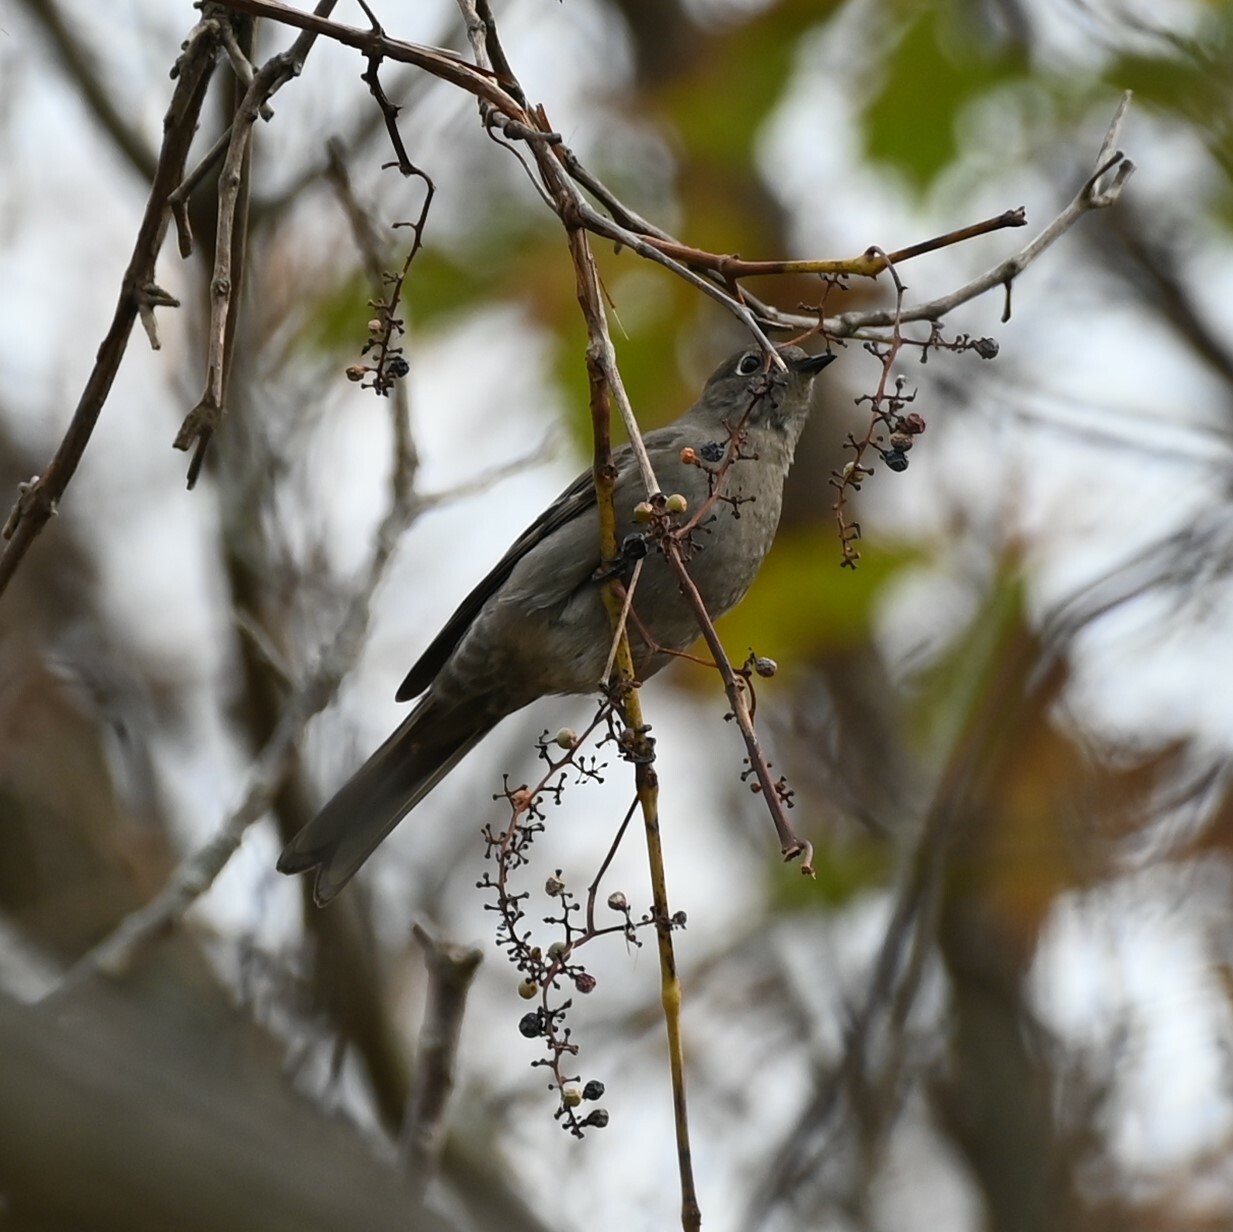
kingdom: Animalia
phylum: Chordata
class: Aves
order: Passeriformes
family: Turdidae
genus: Myadestes
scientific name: Myadestes townsendi
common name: Townsend's solitaire
